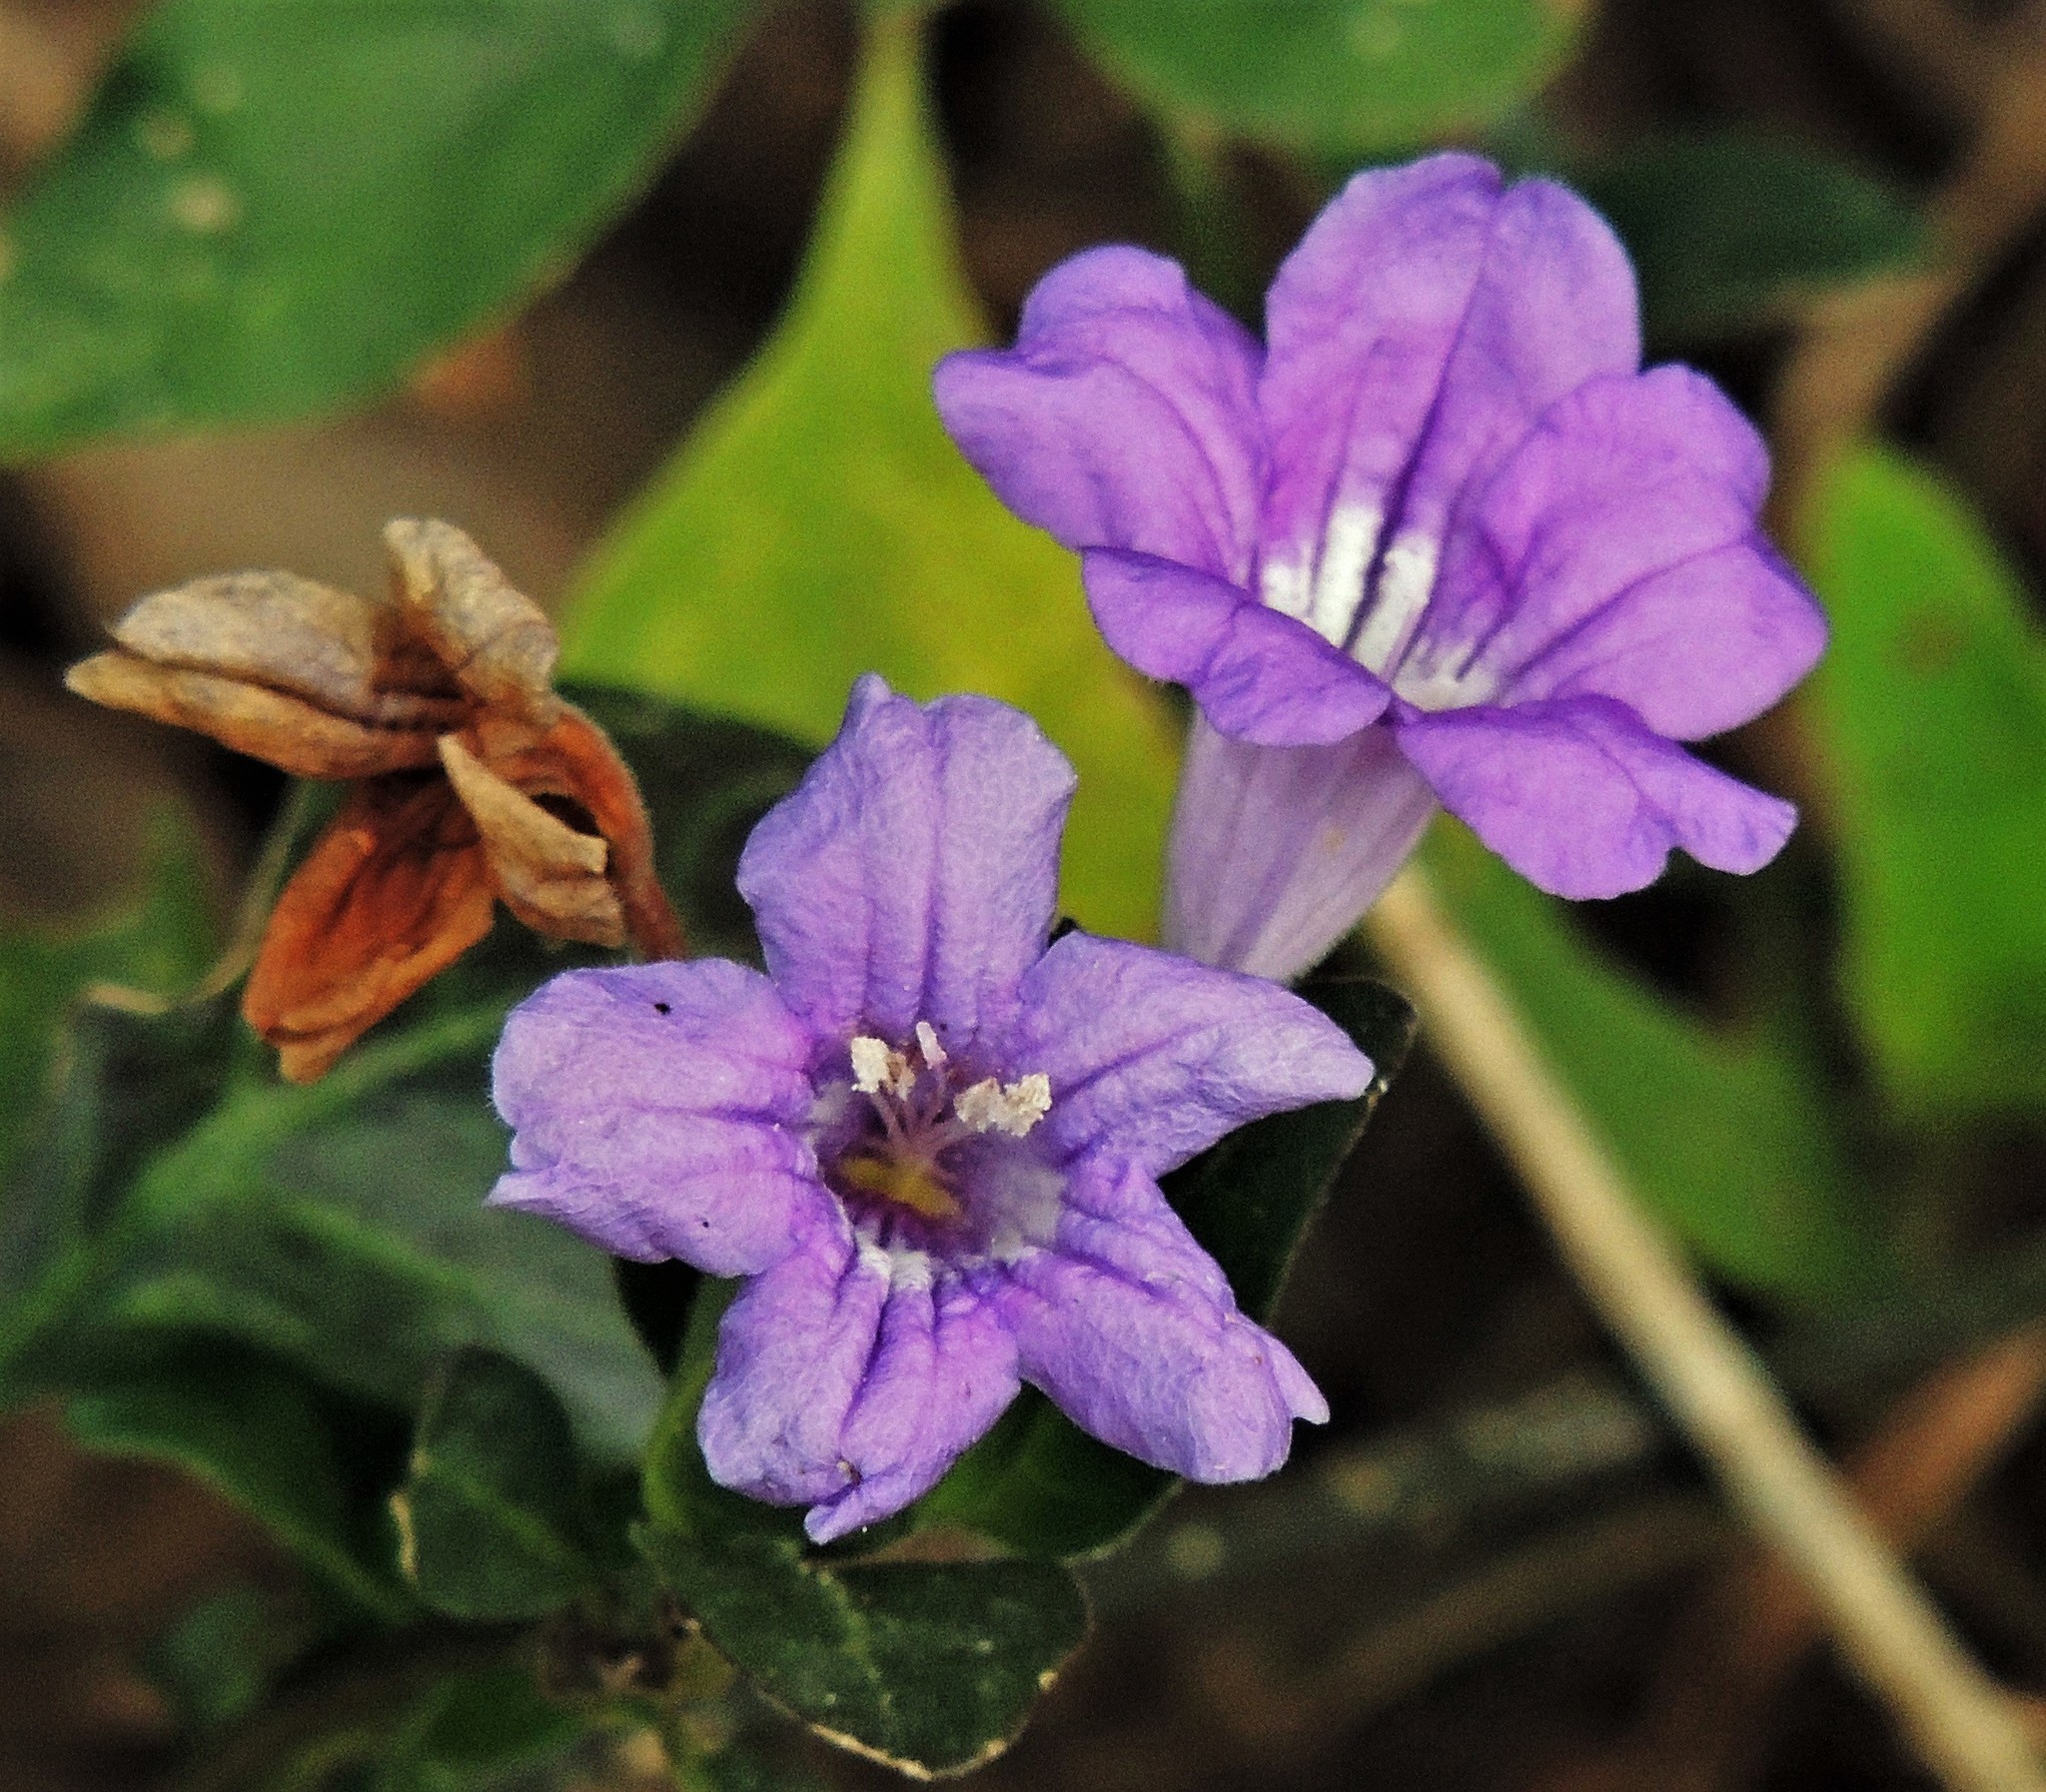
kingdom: Plantae
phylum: Tracheophyta
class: Magnoliopsida
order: Lamiales
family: Acanthaceae
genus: Ruellia
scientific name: Ruellia erythropus
